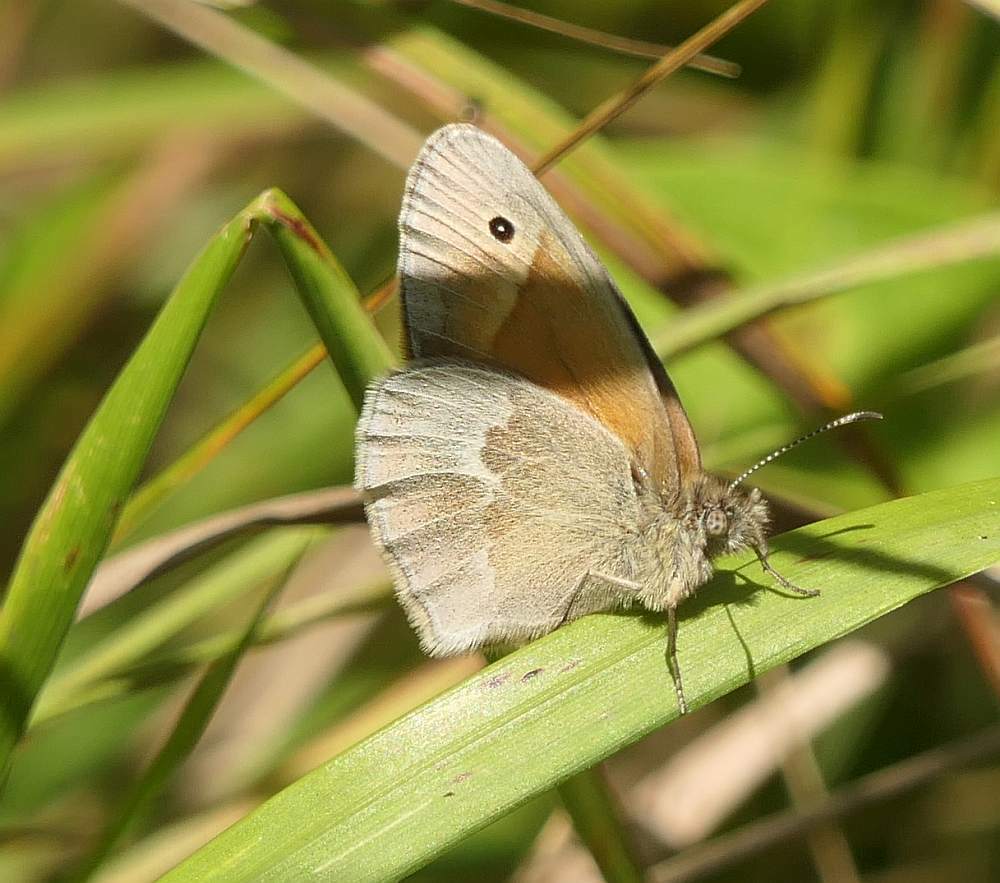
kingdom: Animalia
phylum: Arthropoda
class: Insecta
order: Lepidoptera
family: Nymphalidae
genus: Coenonympha
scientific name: Coenonympha california
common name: Common ringlet
